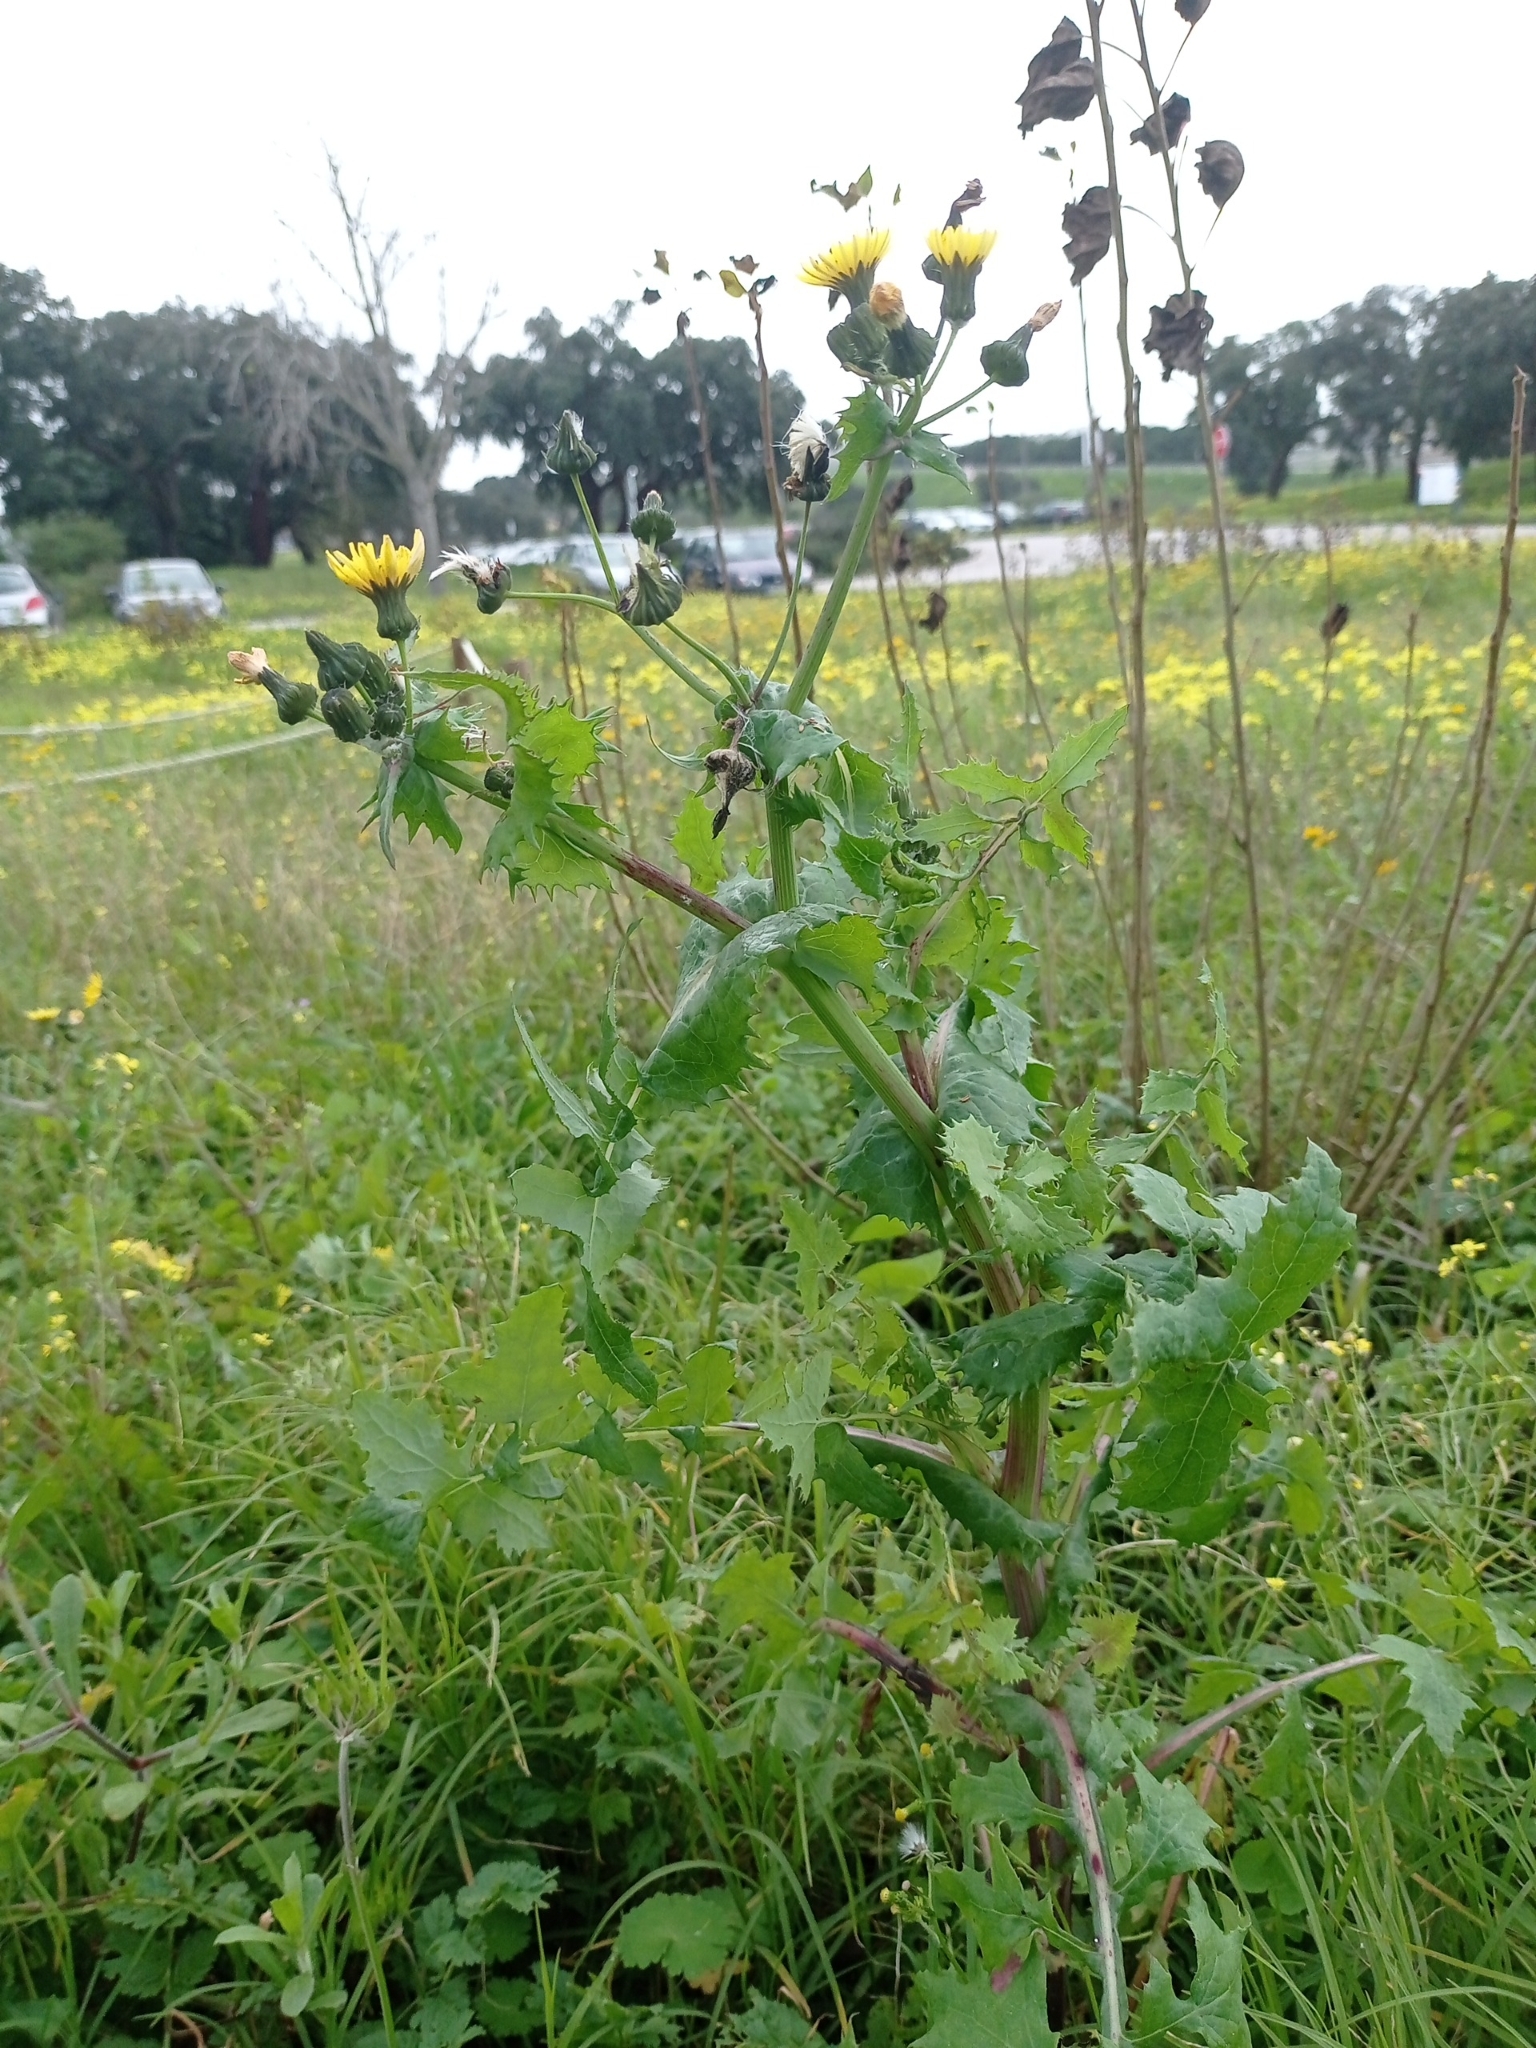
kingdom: Plantae
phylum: Tracheophyta
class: Magnoliopsida
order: Asterales
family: Asteraceae
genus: Sonchus
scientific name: Sonchus oleraceus
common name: Common sowthistle
